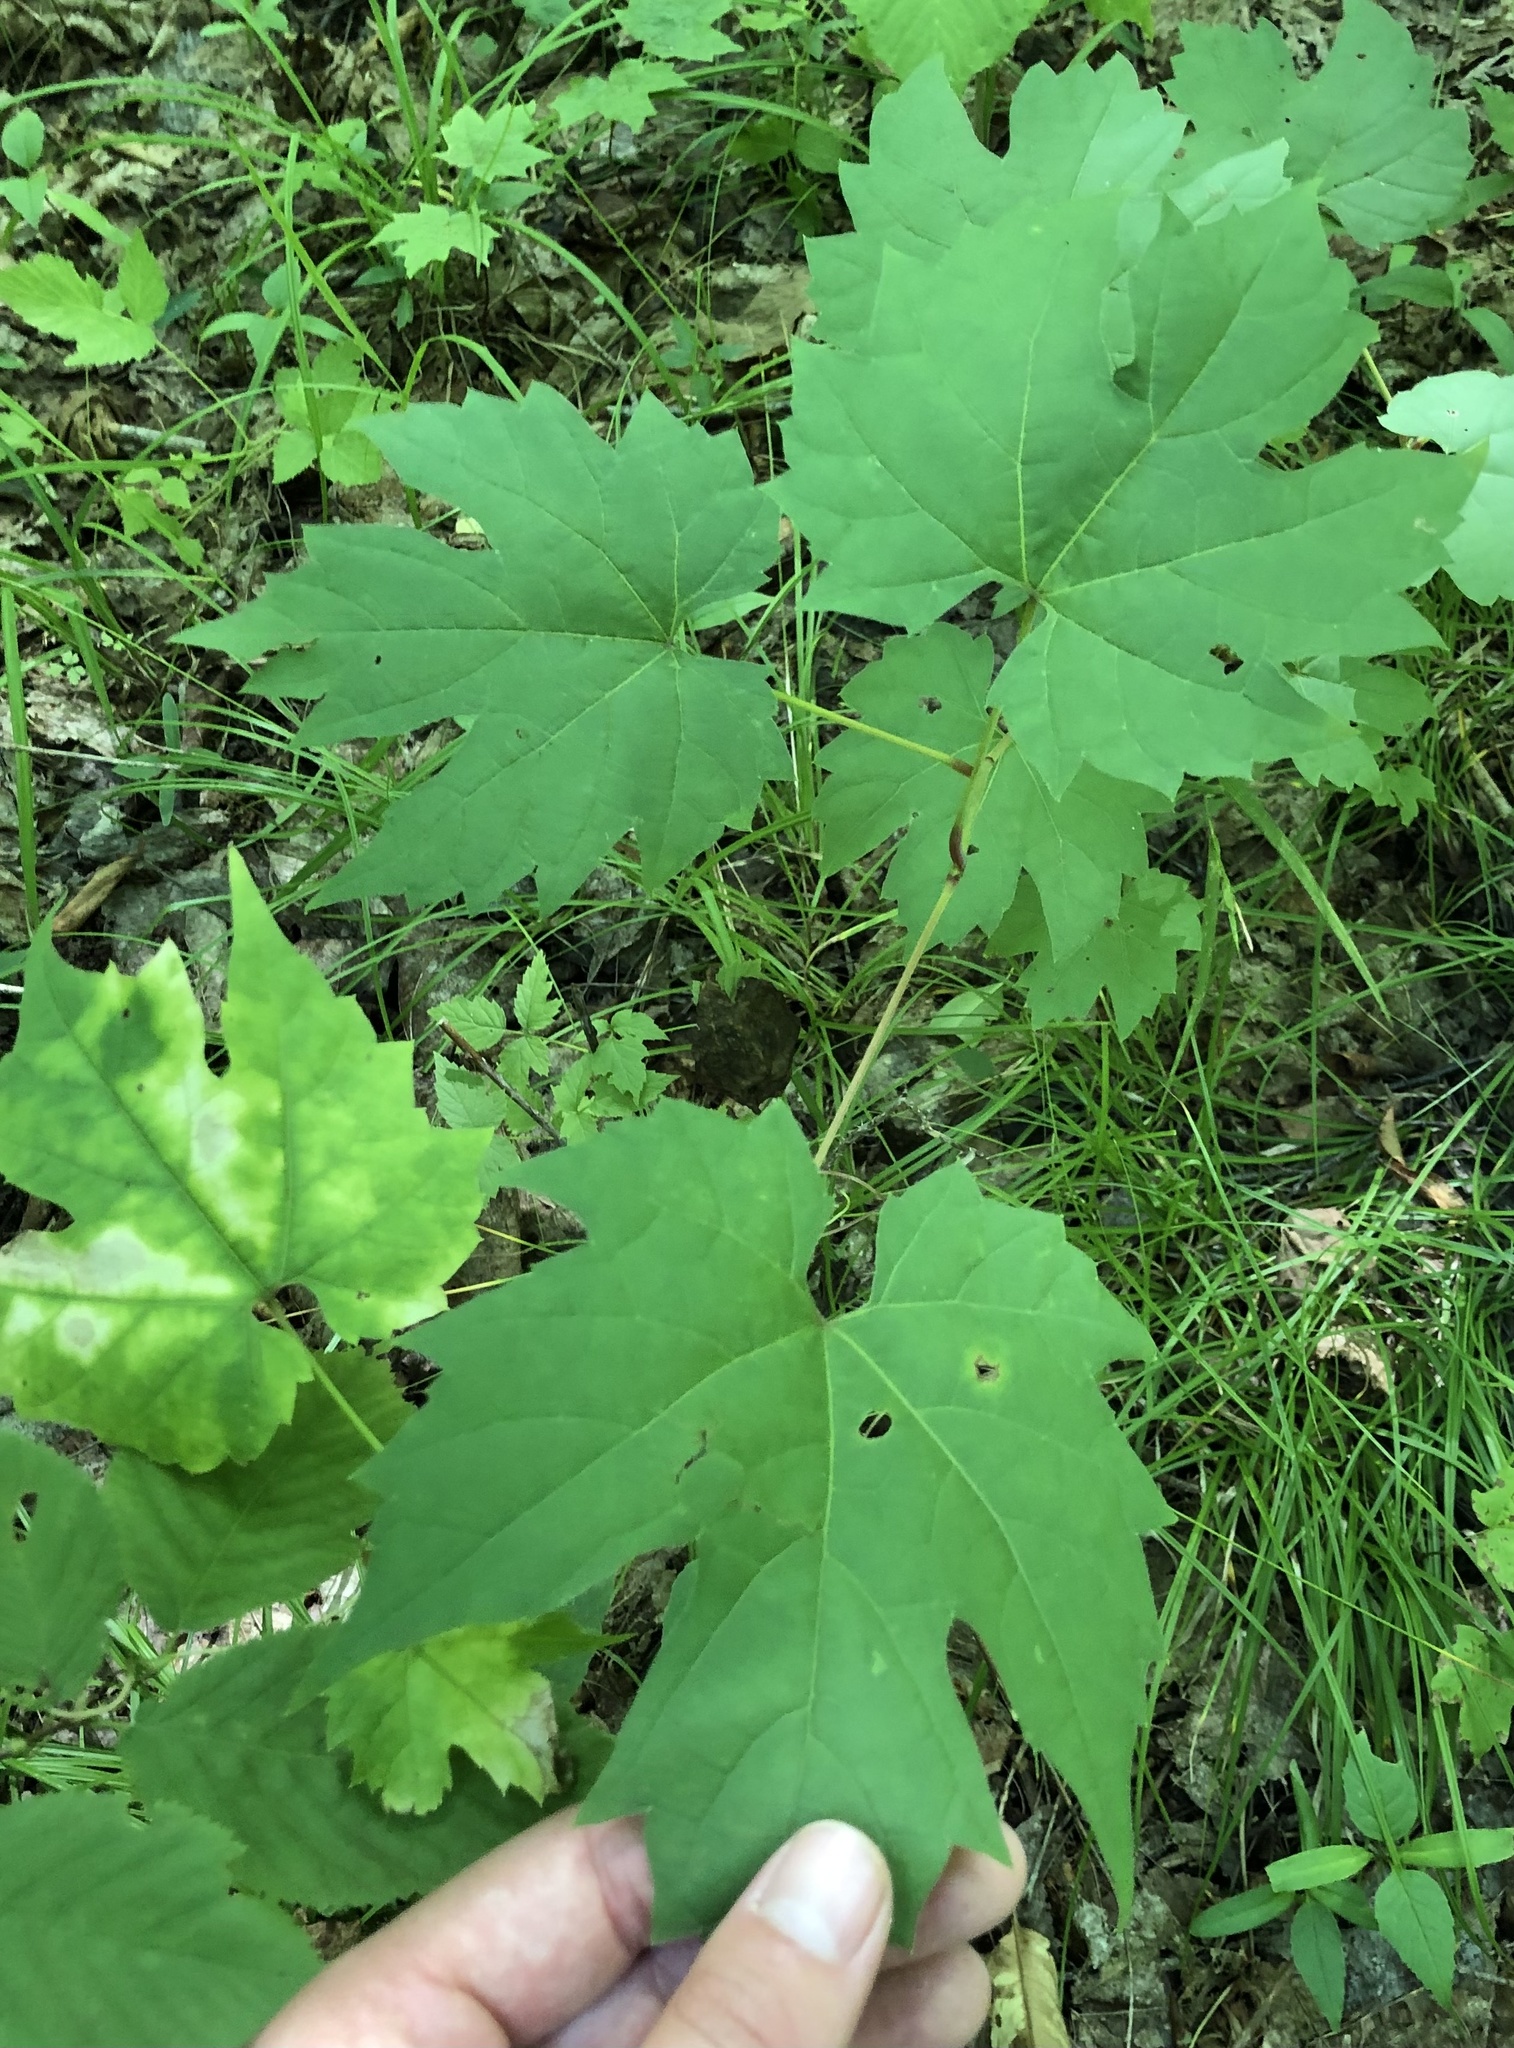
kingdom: Plantae
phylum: Tracheophyta
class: Magnoliopsida
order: Vitales
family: Vitaceae
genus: Vitis
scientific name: Vitis riparia
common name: Frost grape
